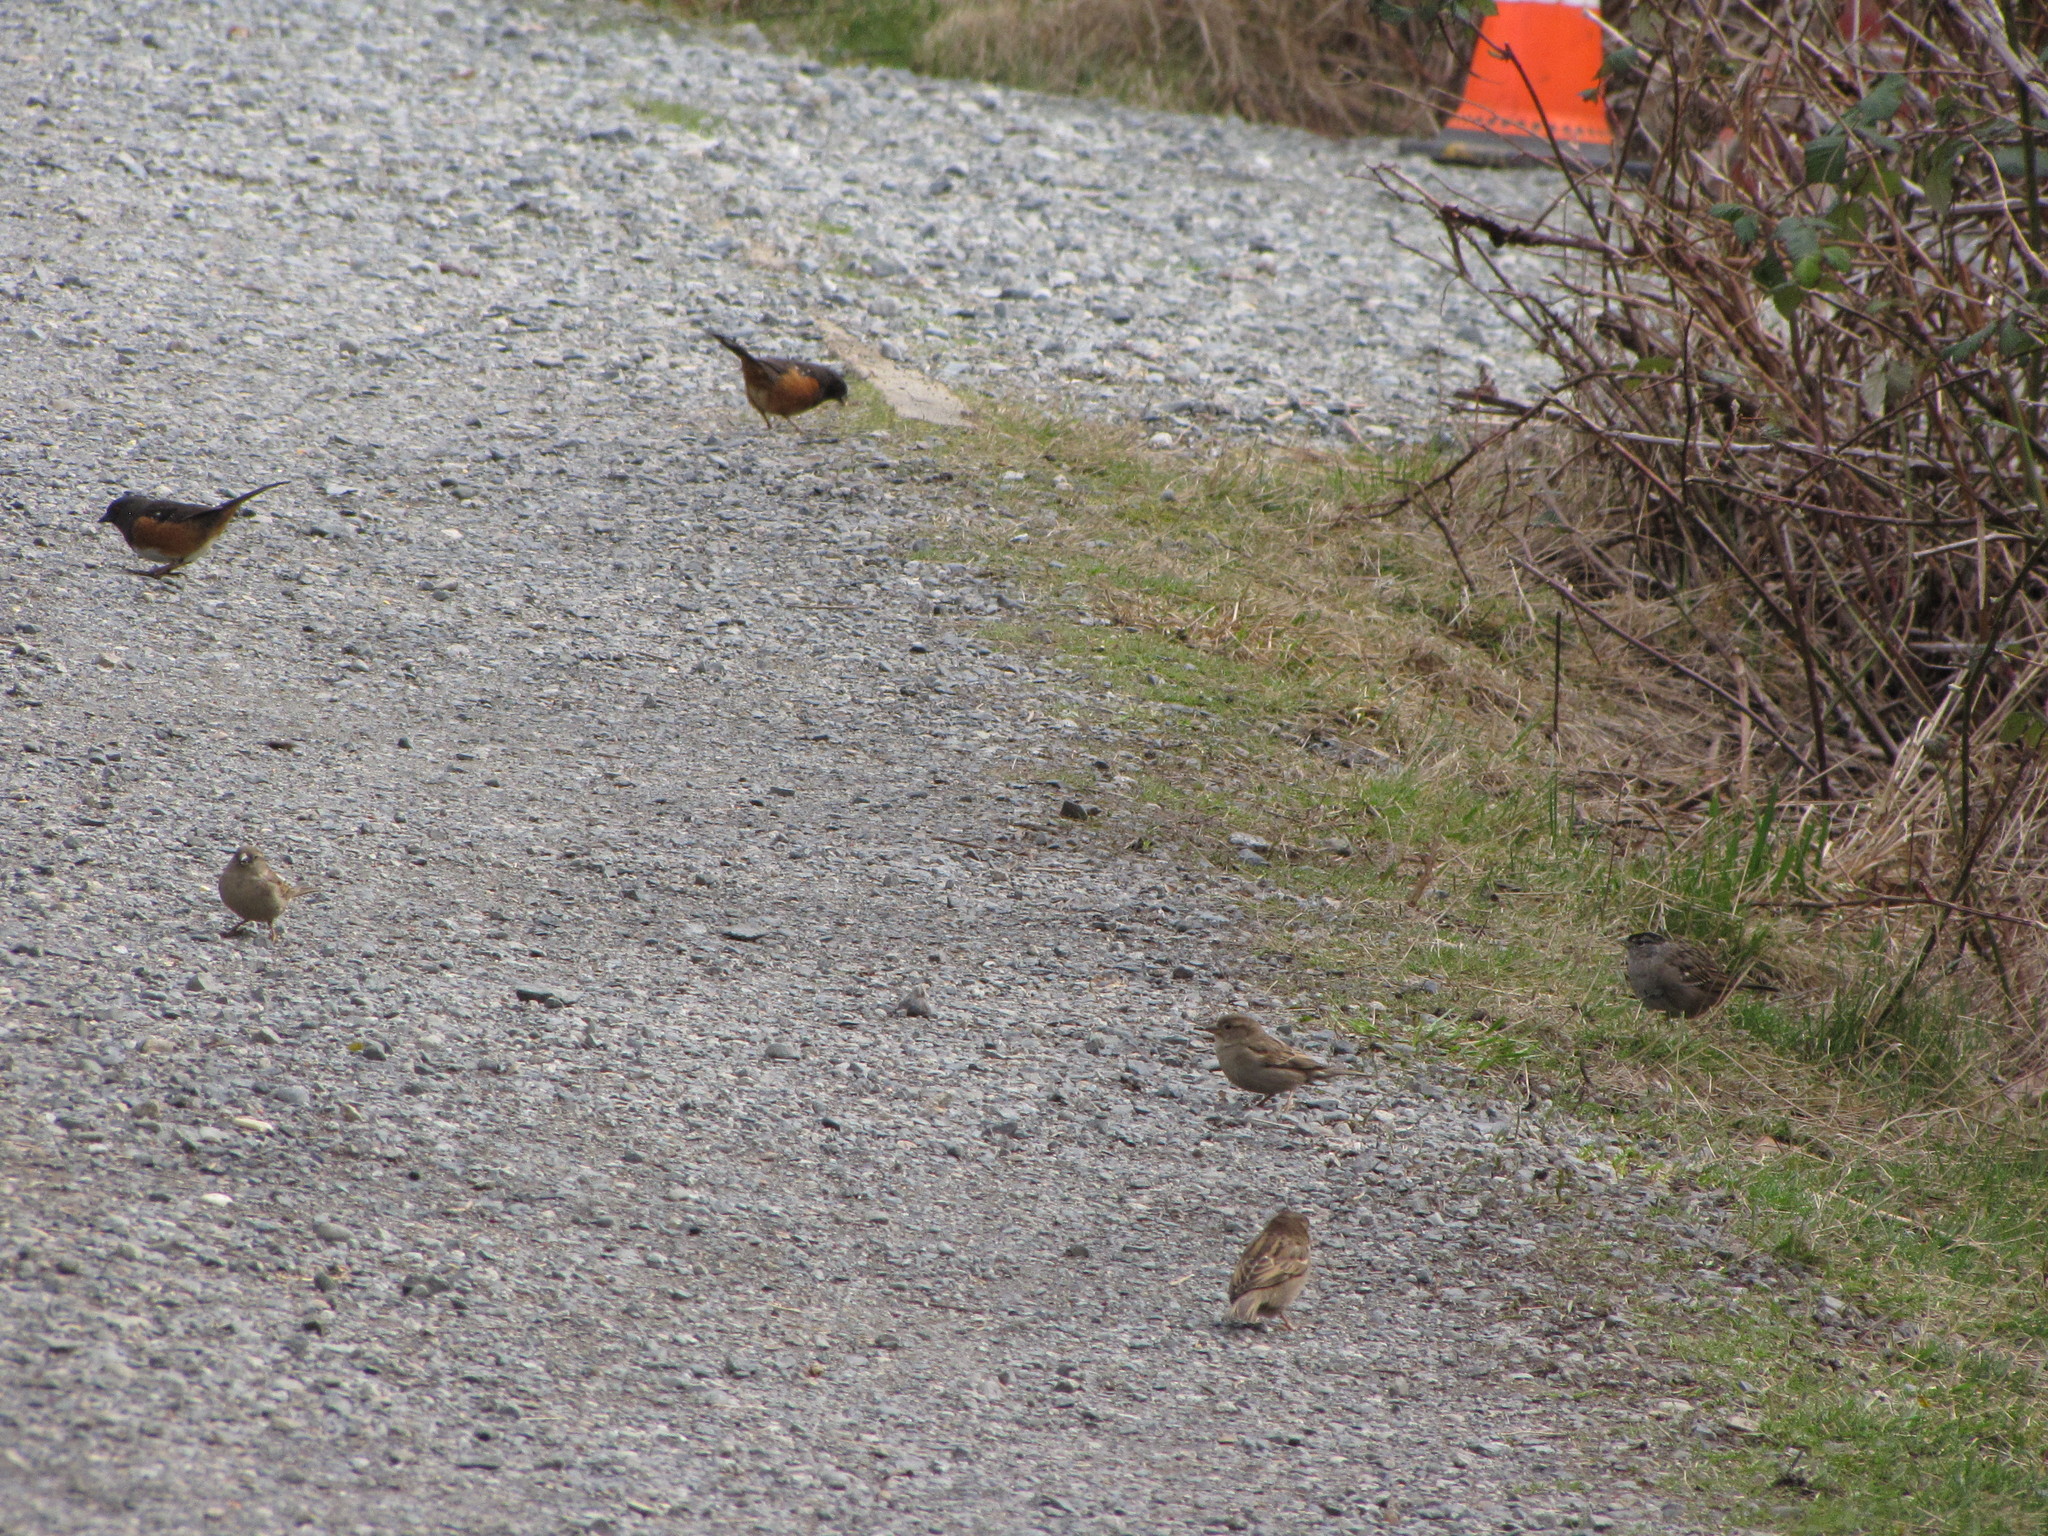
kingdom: Animalia
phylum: Chordata
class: Aves
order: Passeriformes
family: Passerellidae
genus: Pipilo
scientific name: Pipilo maculatus
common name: Spotted towhee
